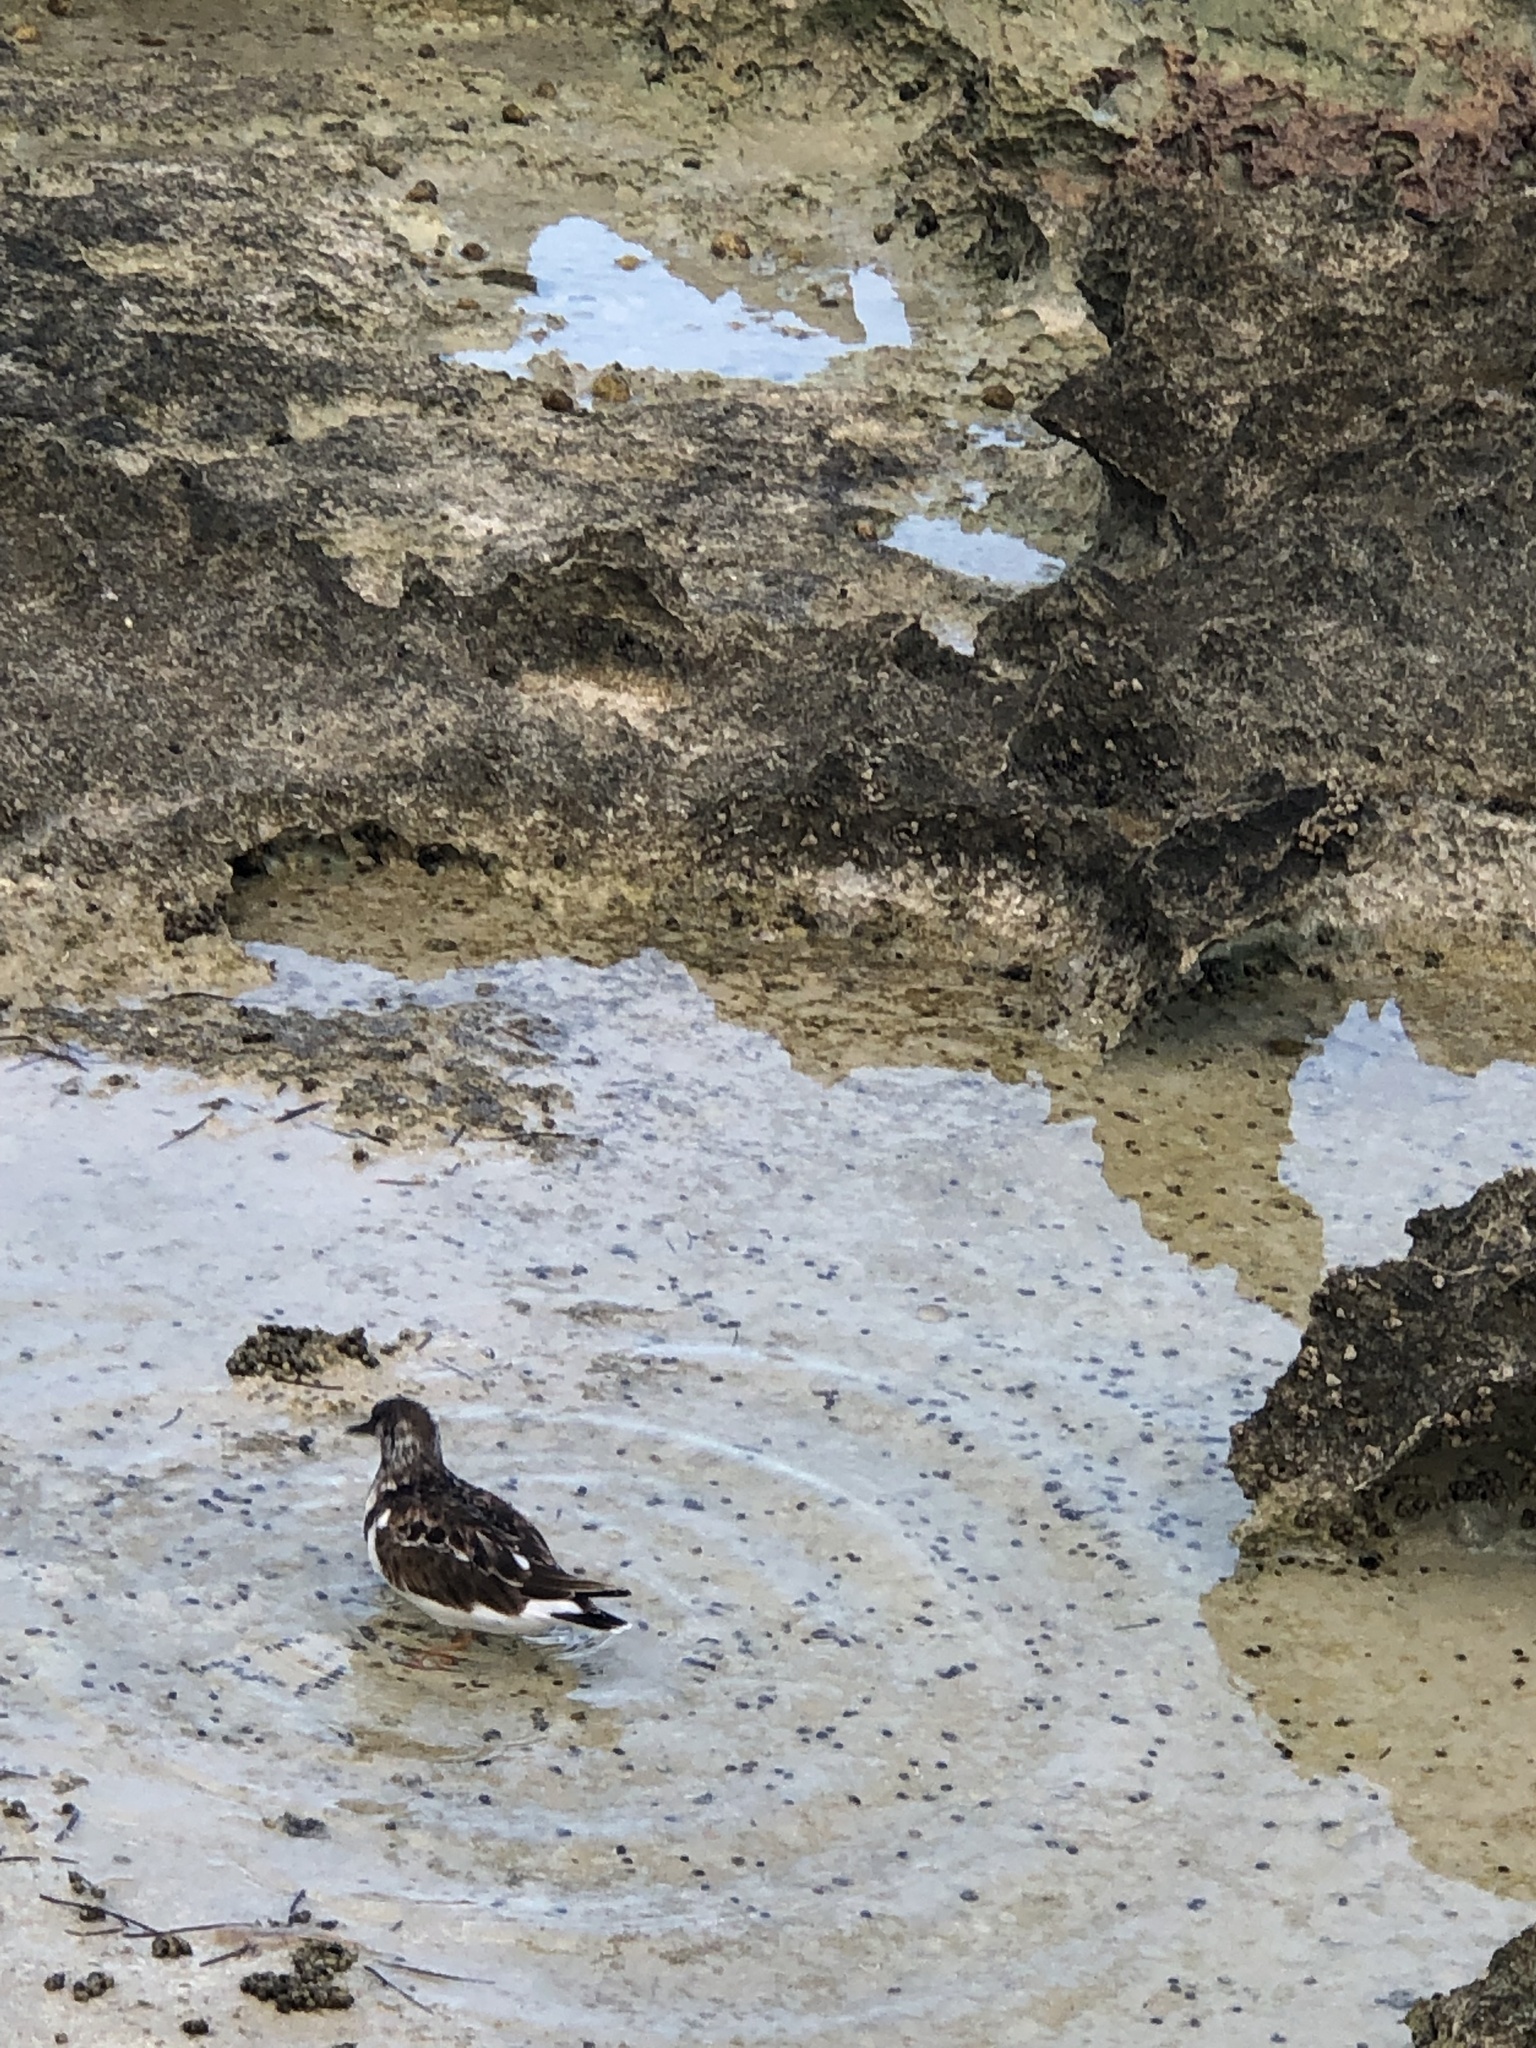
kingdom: Animalia
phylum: Chordata
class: Aves
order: Charadriiformes
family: Scolopacidae
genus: Arenaria
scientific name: Arenaria interpres
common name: Ruddy turnstone
